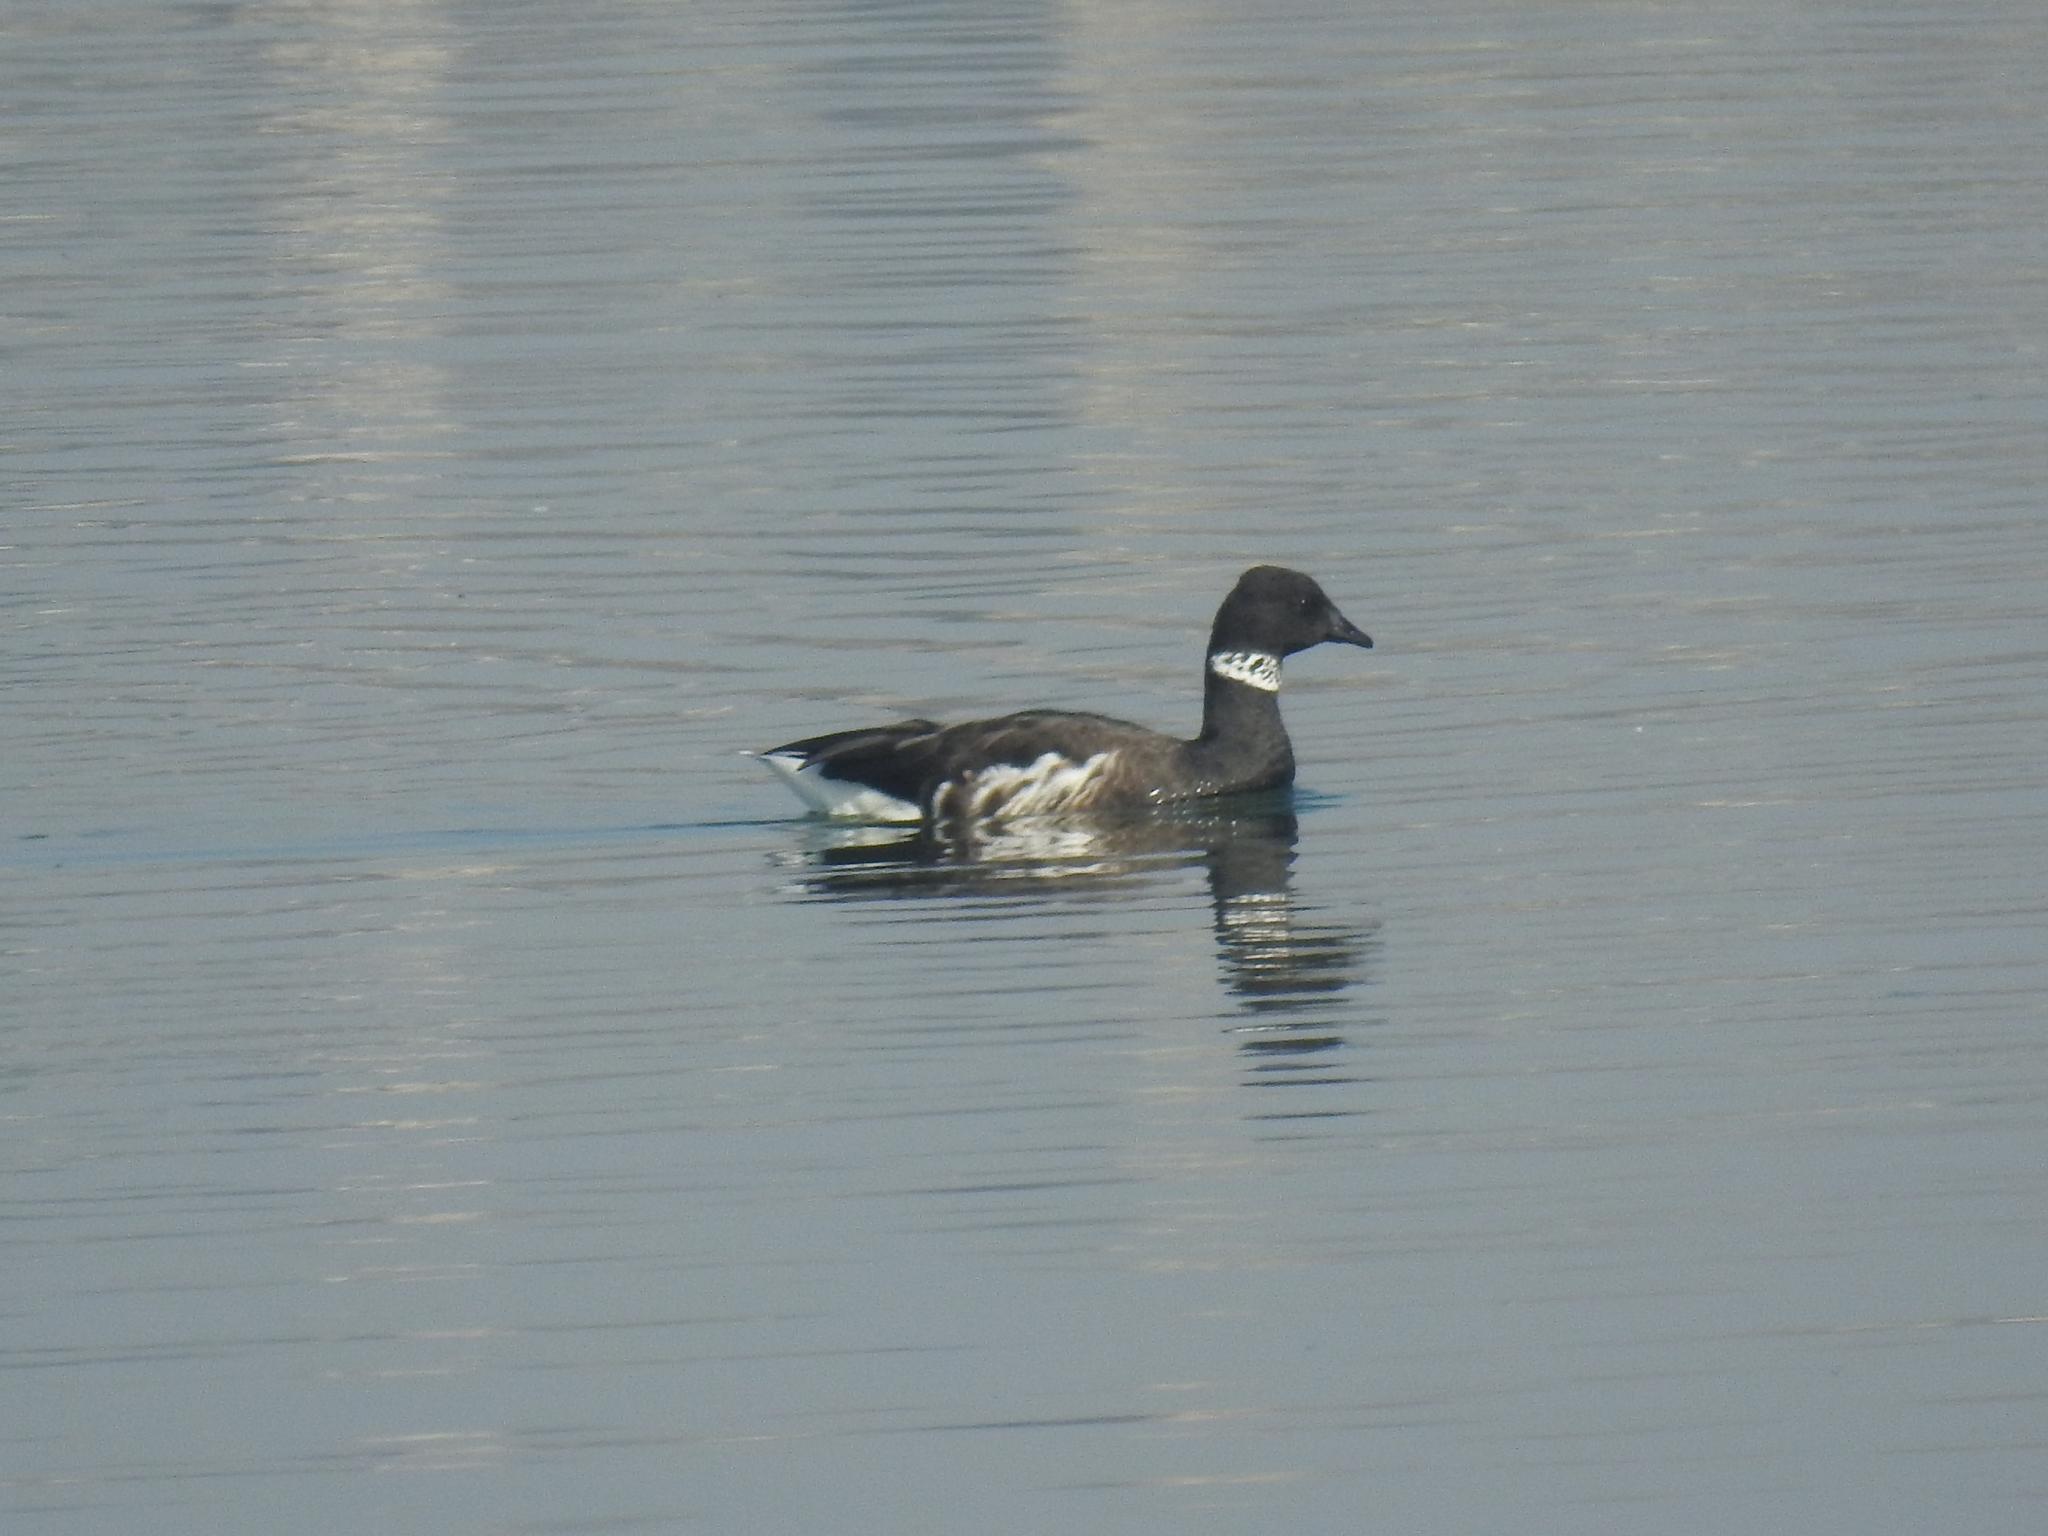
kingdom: Animalia
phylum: Chordata
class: Aves
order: Anseriformes
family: Anatidae
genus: Branta
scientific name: Branta bernicla
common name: Brant goose
